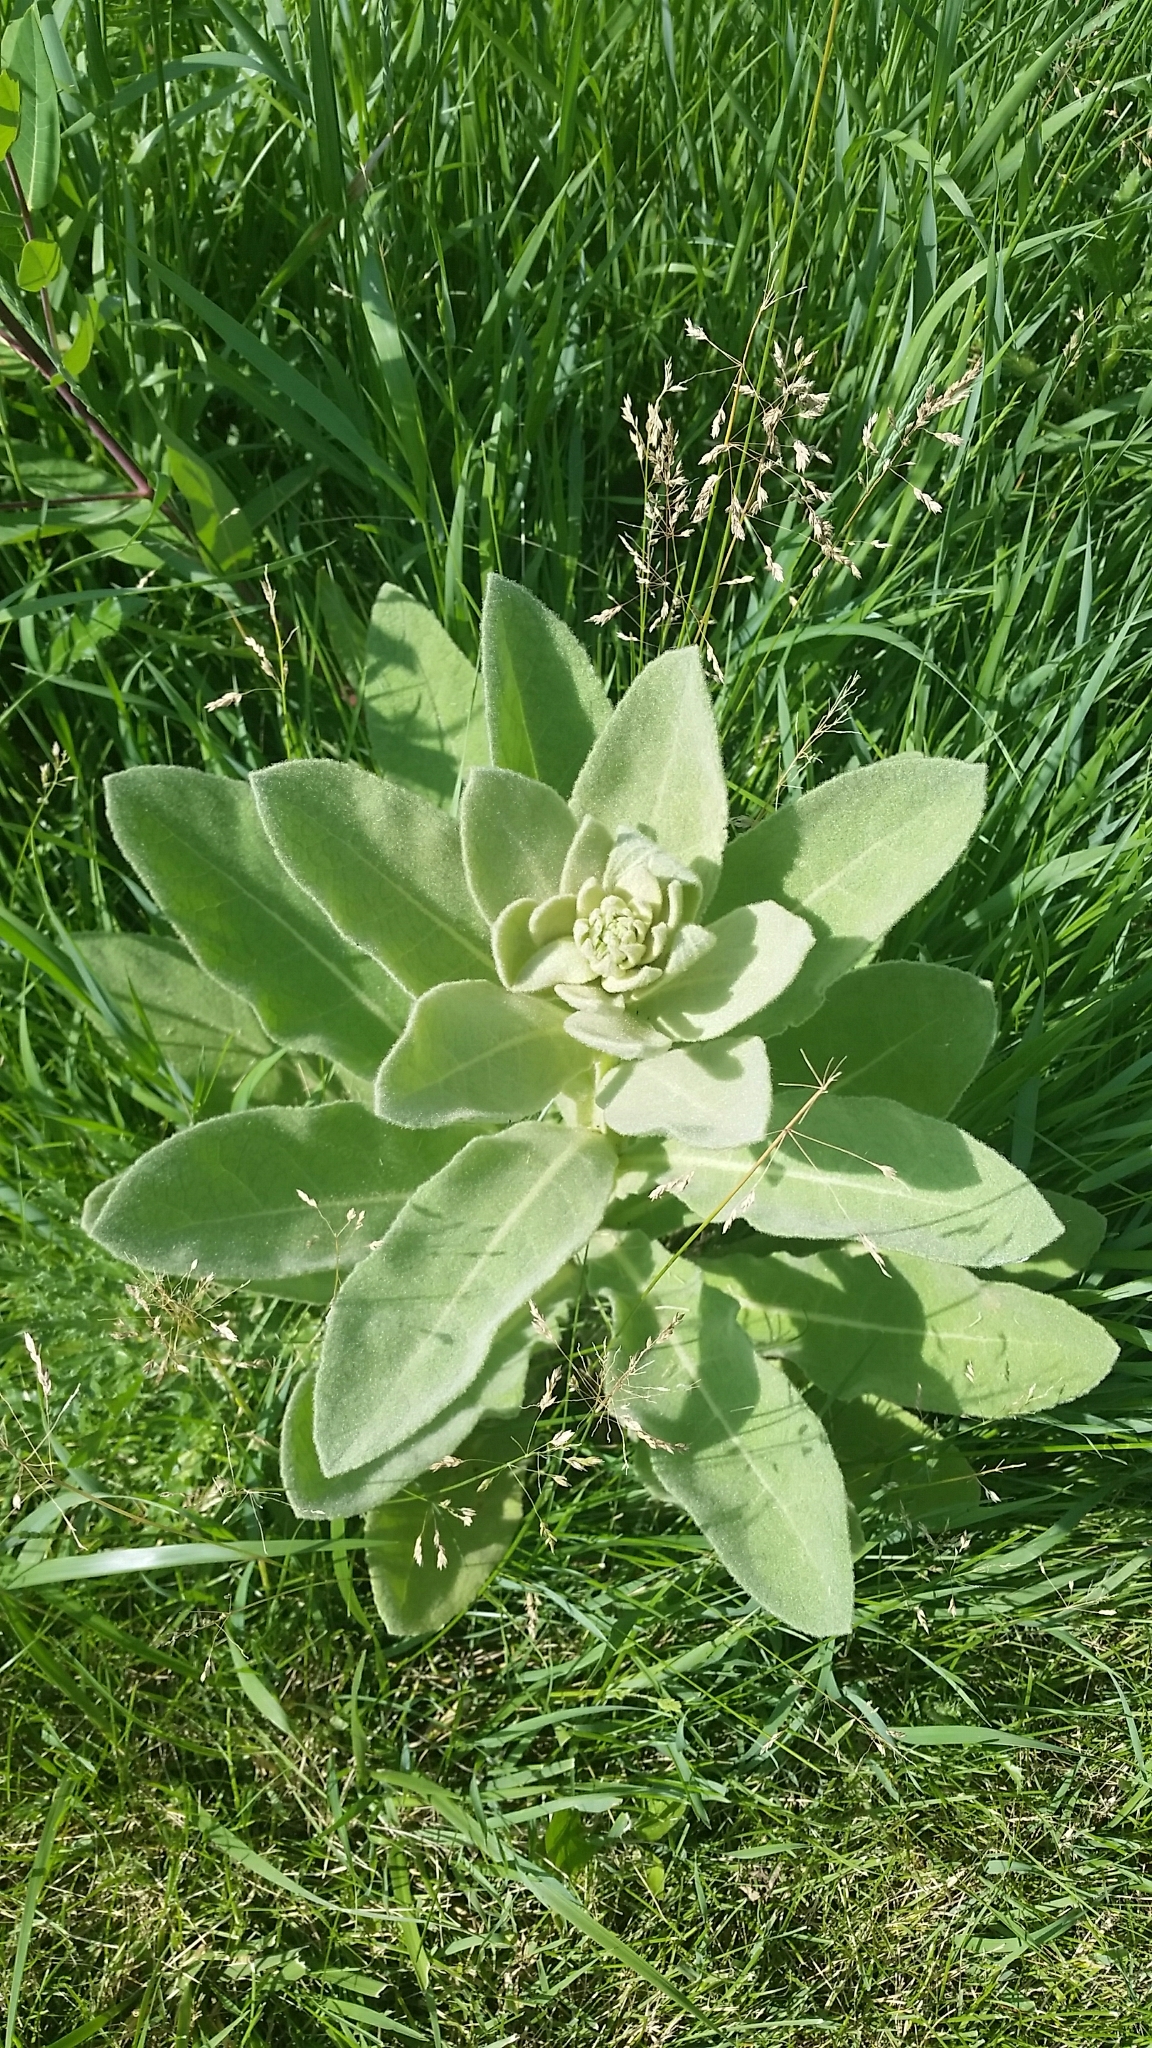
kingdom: Plantae
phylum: Tracheophyta
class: Magnoliopsida
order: Lamiales
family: Scrophulariaceae
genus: Verbascum
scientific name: Verbascum thapsus
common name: Common mullein
